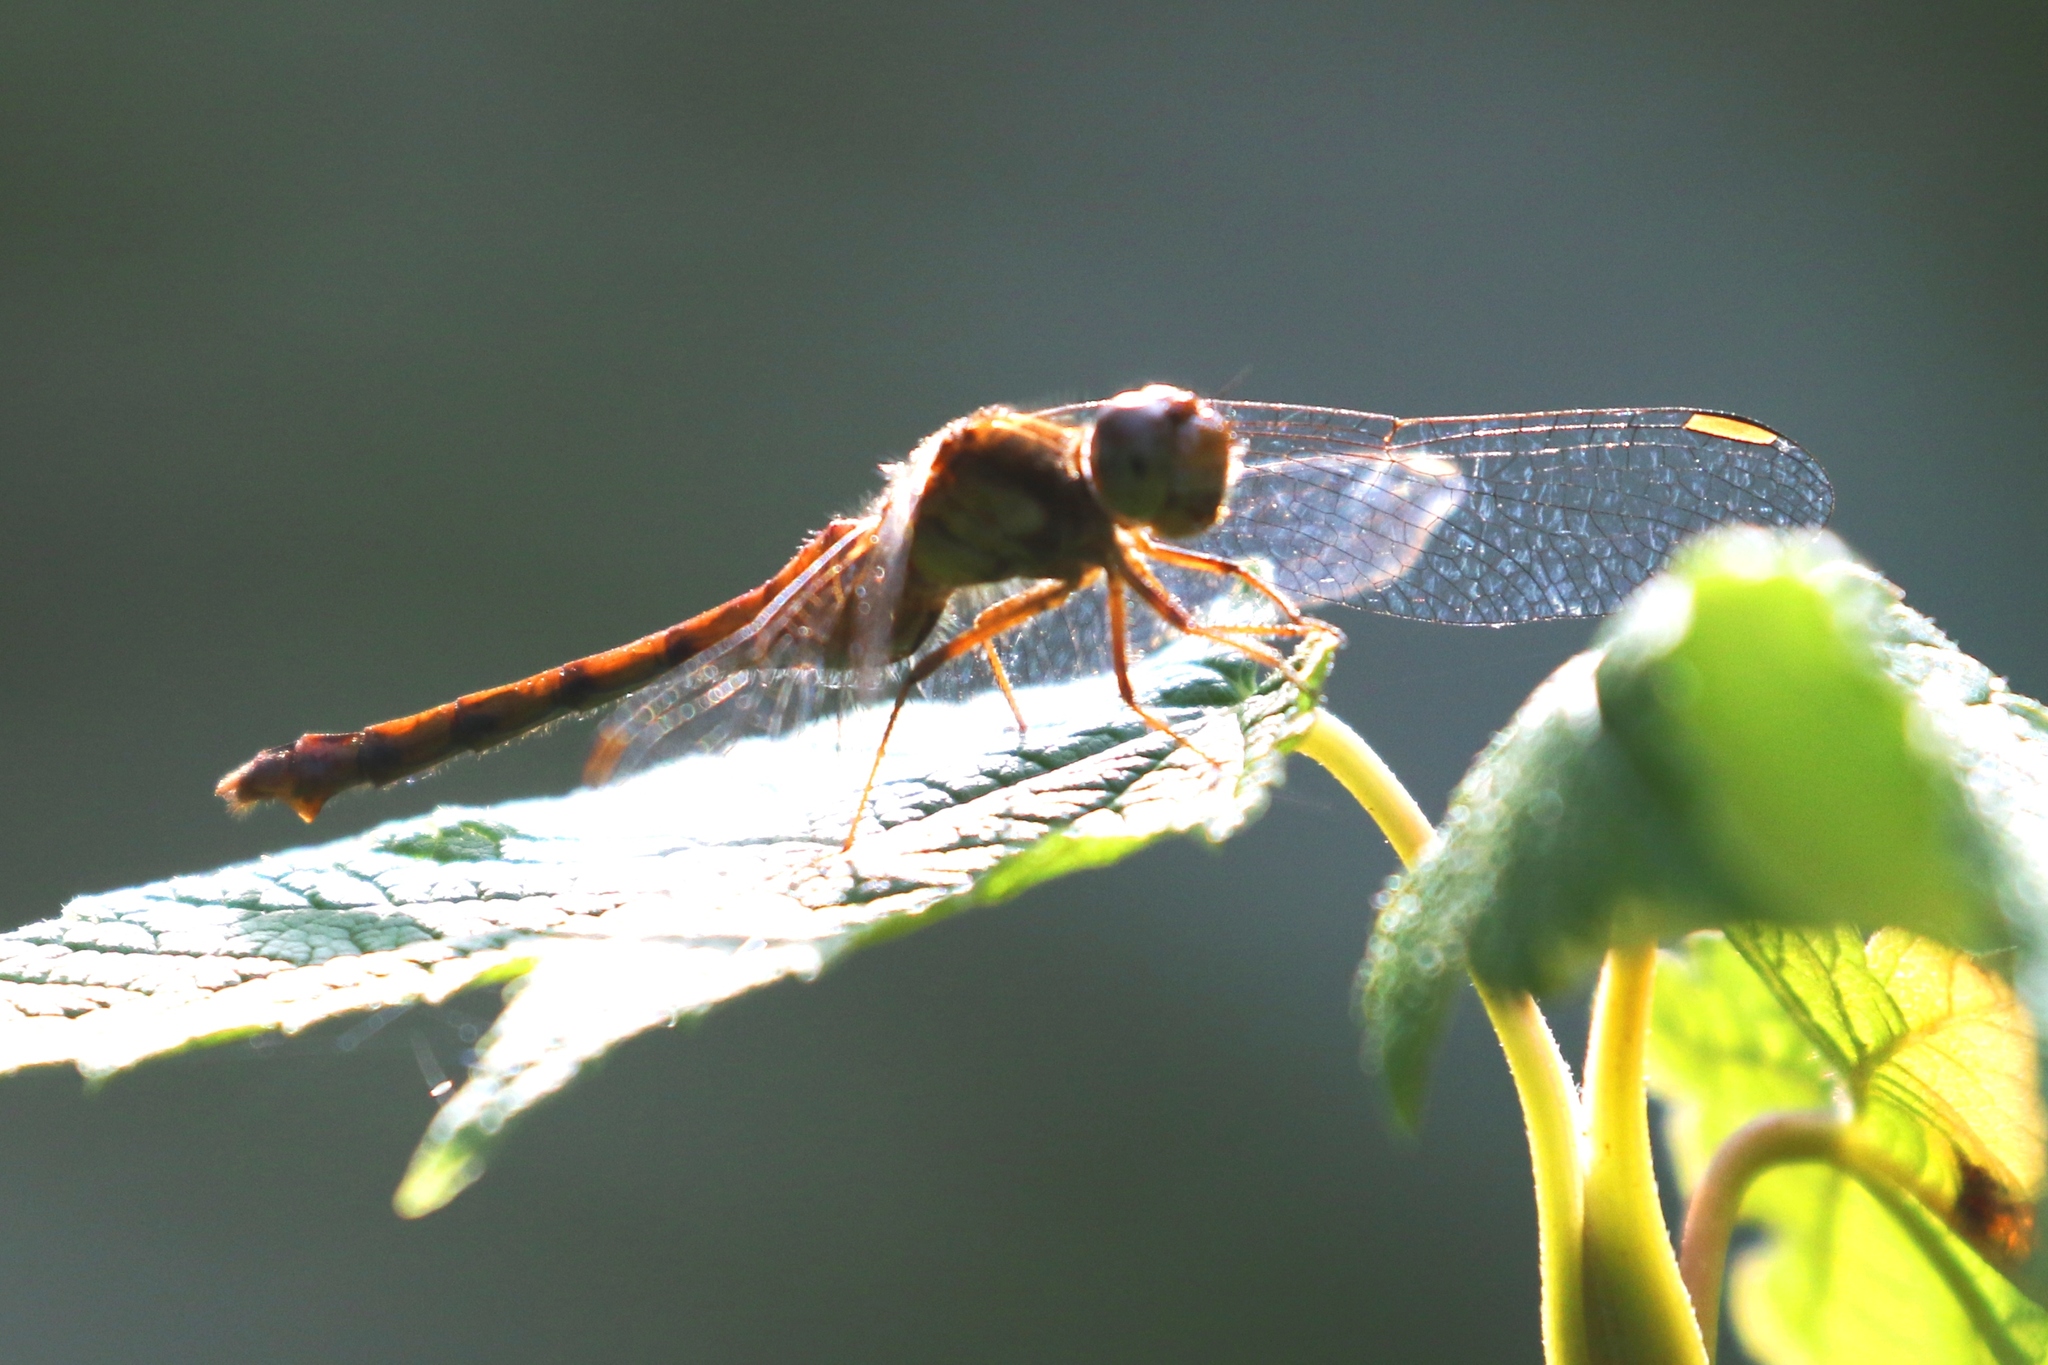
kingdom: Animalia
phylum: Arthropoda
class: Insecta
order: Odonata
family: Libellulidae
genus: Sympetrum
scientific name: Sympetrum vicinum
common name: Autumn meadowhawk
